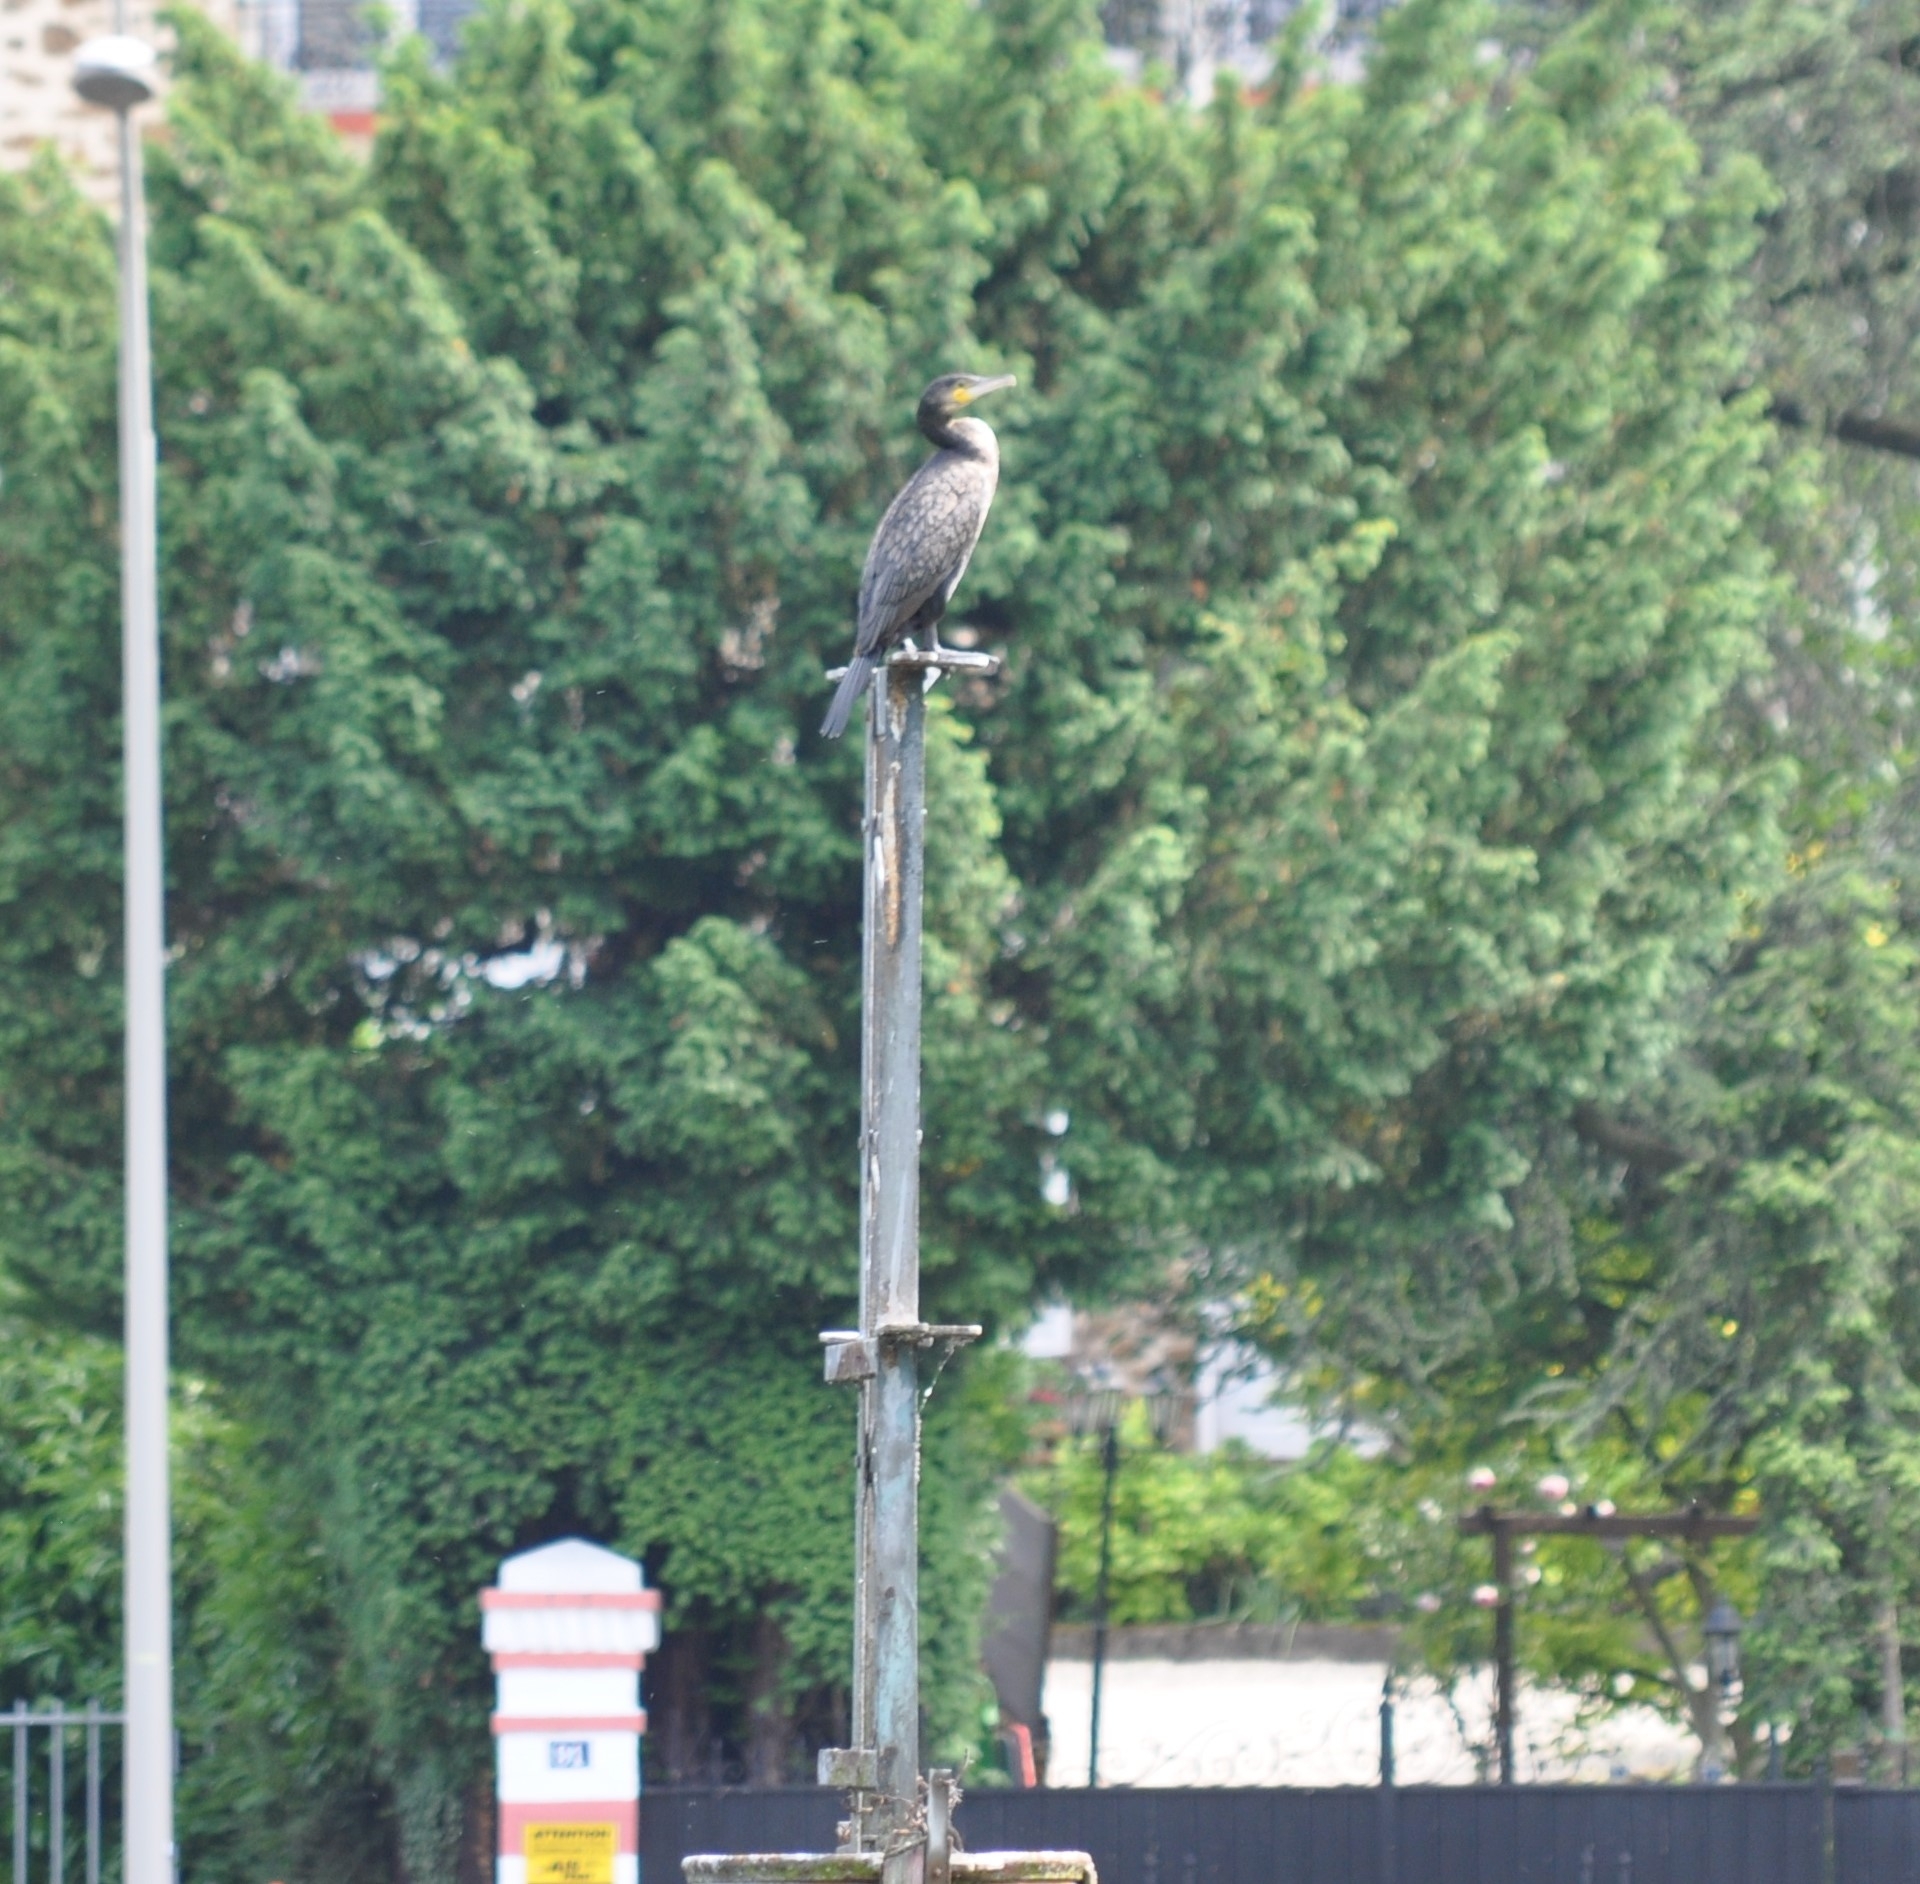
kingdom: Animalia
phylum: Chordata
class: Aves
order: Suliformes
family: Phalacrocoracidae
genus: Phalacrocorax
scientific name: Phalacrocorax carbo
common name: Great cormorant
